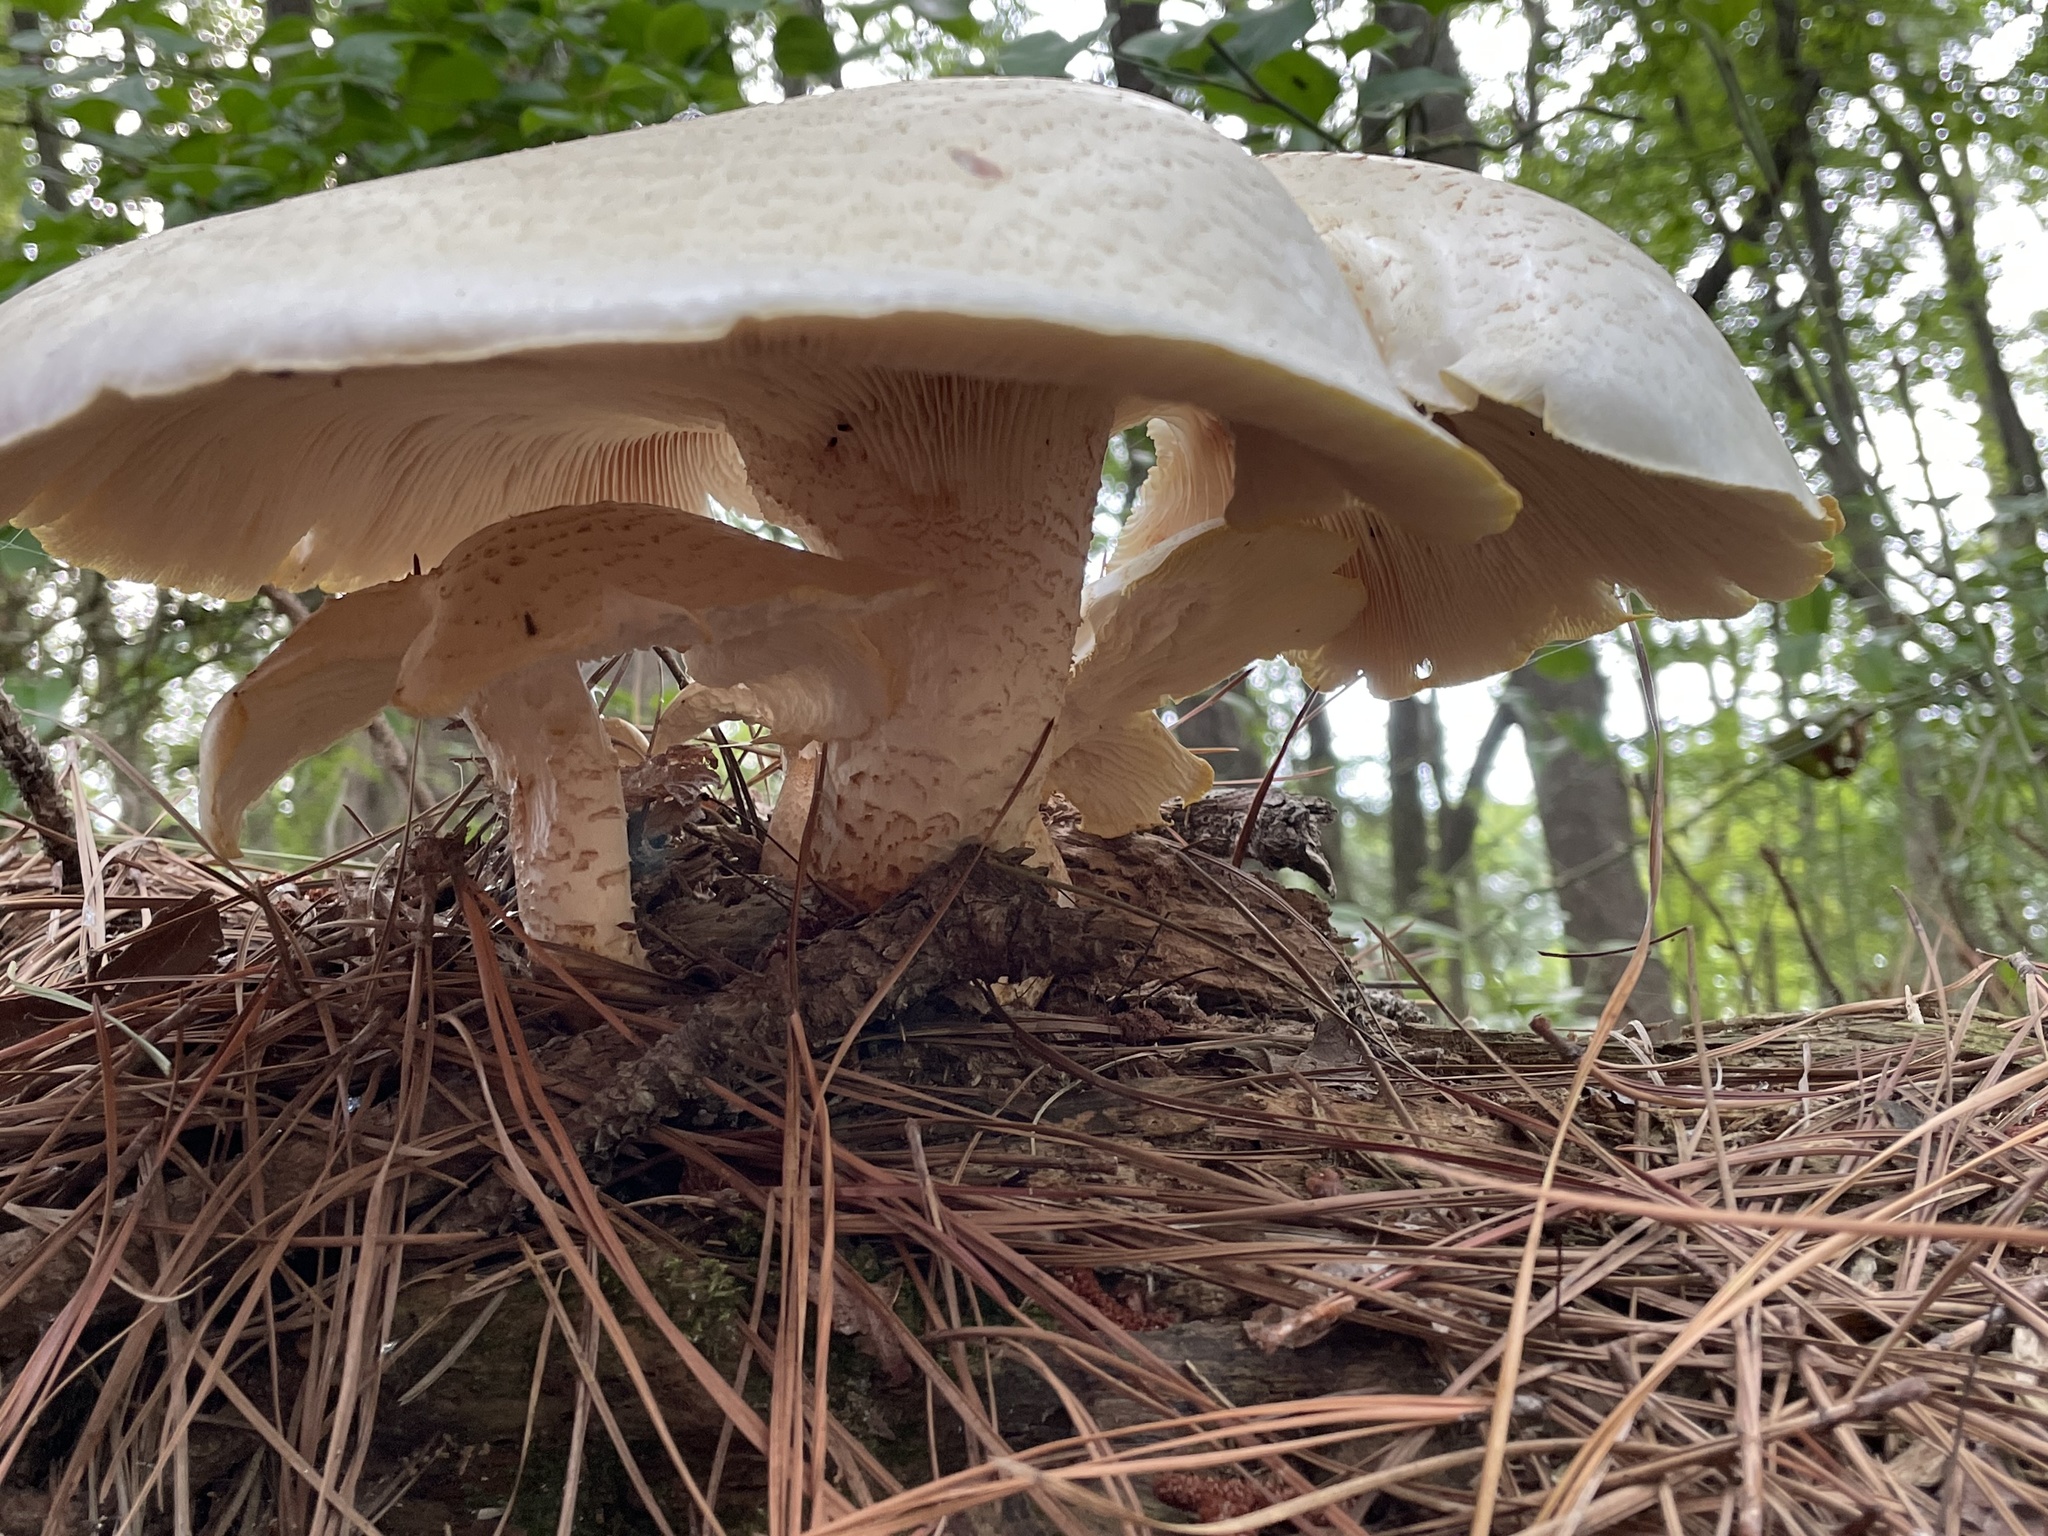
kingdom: Fungi
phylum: Basidiomycota
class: Agaricomycetes
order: Gloeophyllales
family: Gloeophyllaceae
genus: Neolentinus
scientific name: Neolentinus lepideus
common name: Scaly sawgill
